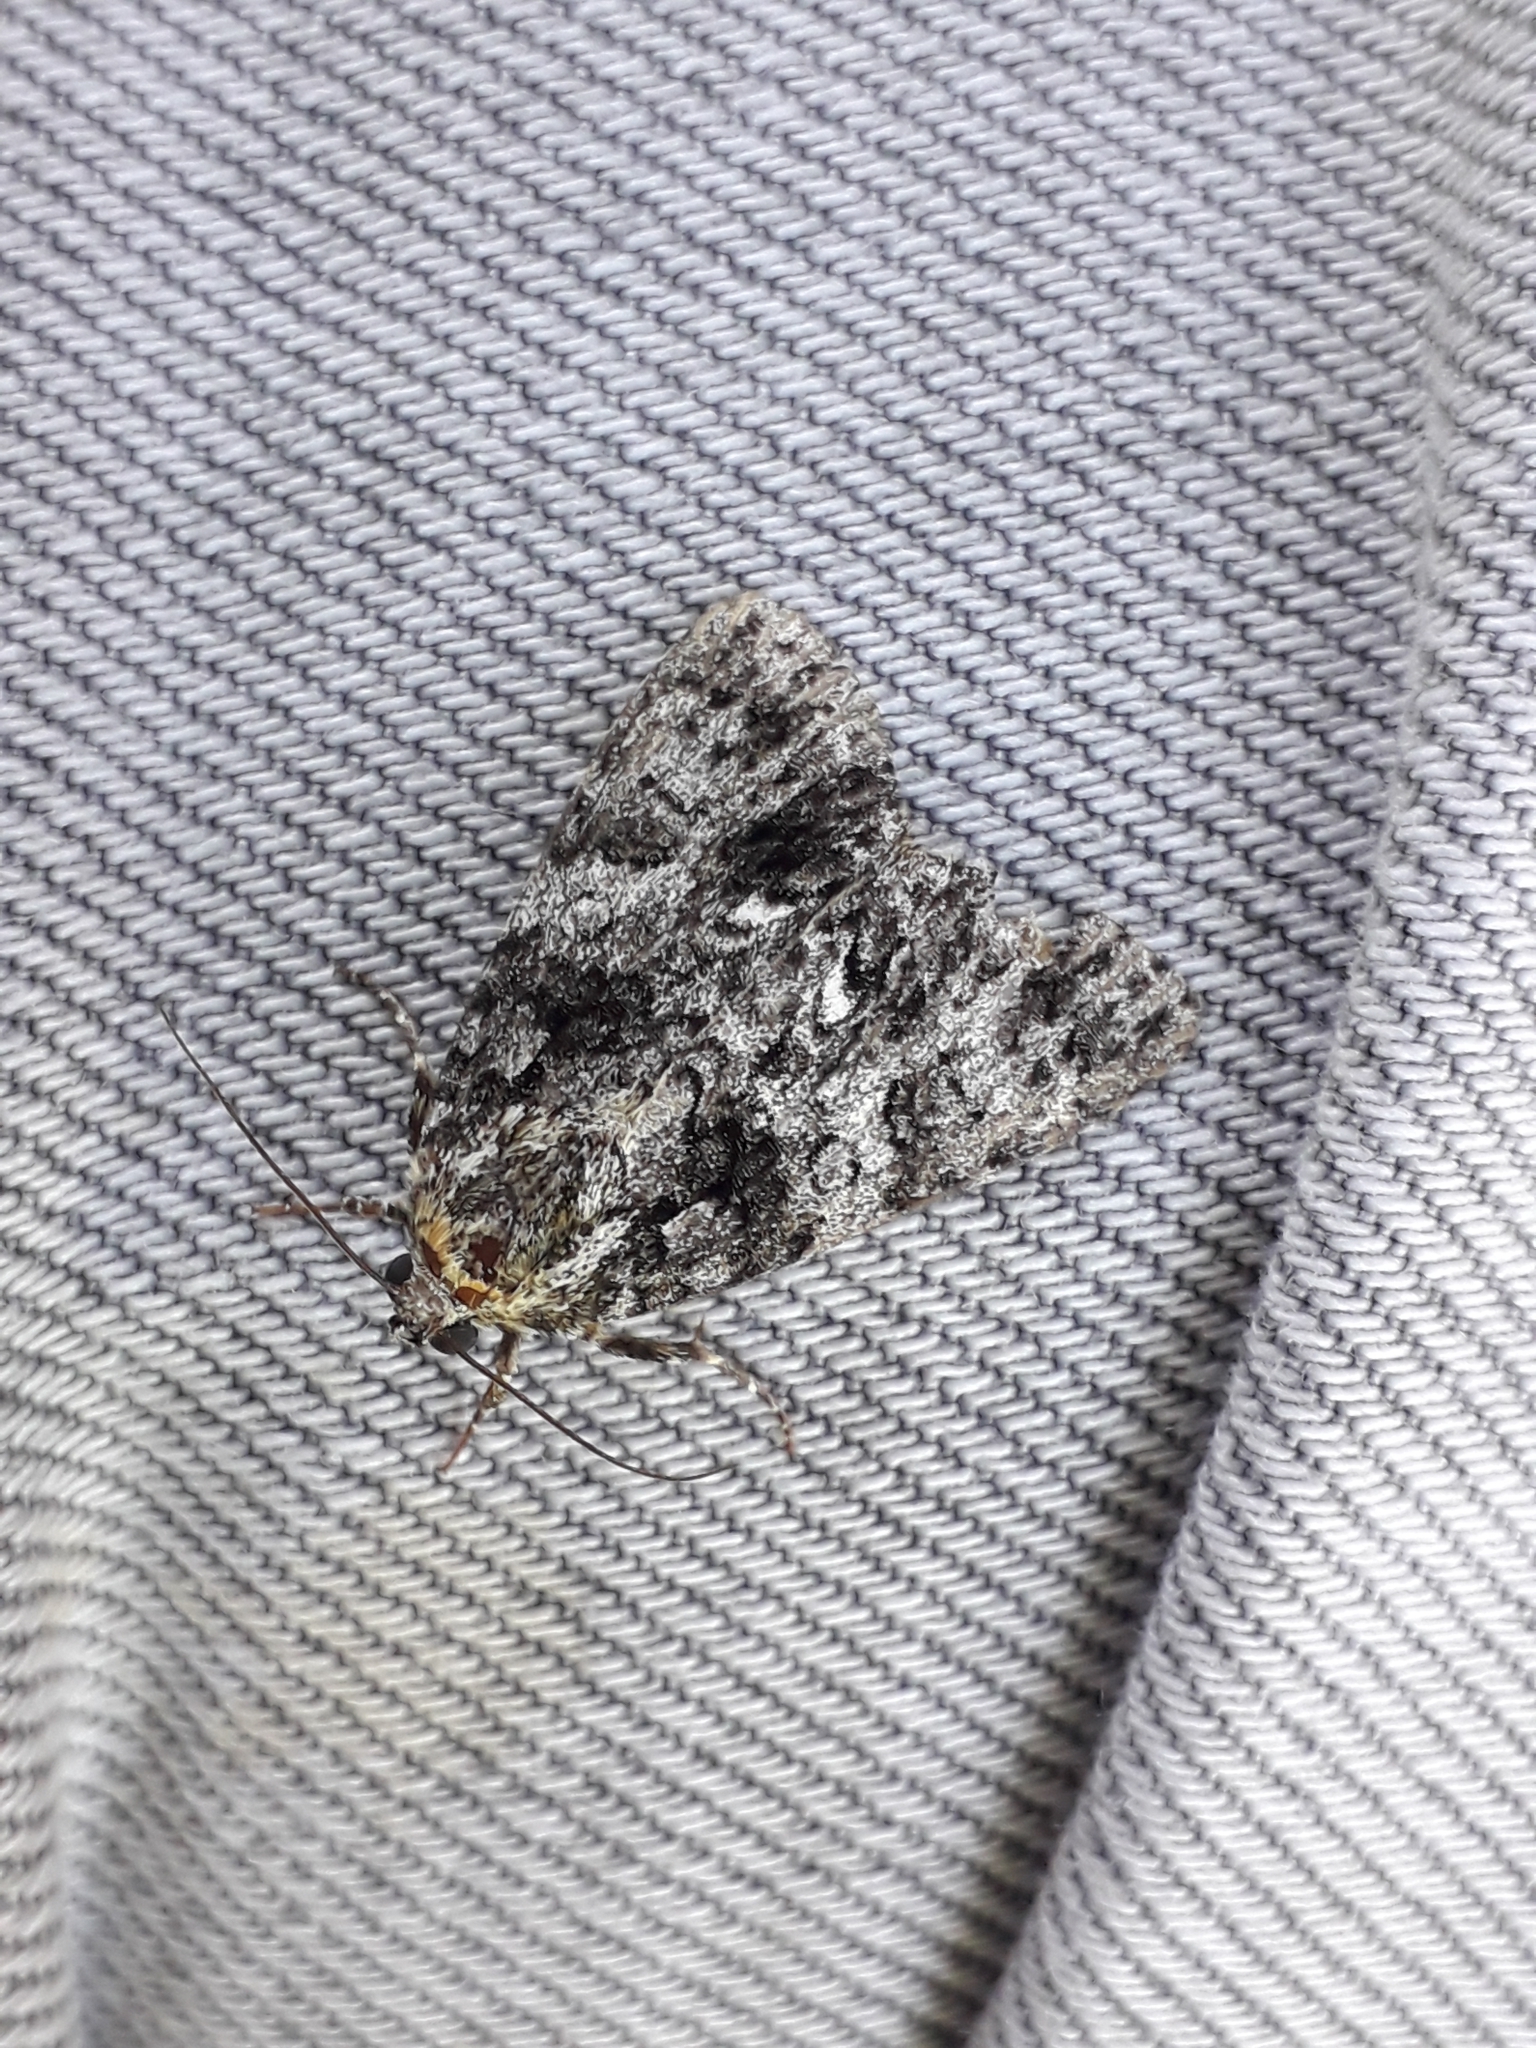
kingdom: Animalia
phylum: Arthropoda
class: Insecta
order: Lepidoptera
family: Noctuidae
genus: Acronicta
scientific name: Acronicta rumicis
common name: Knot grass
